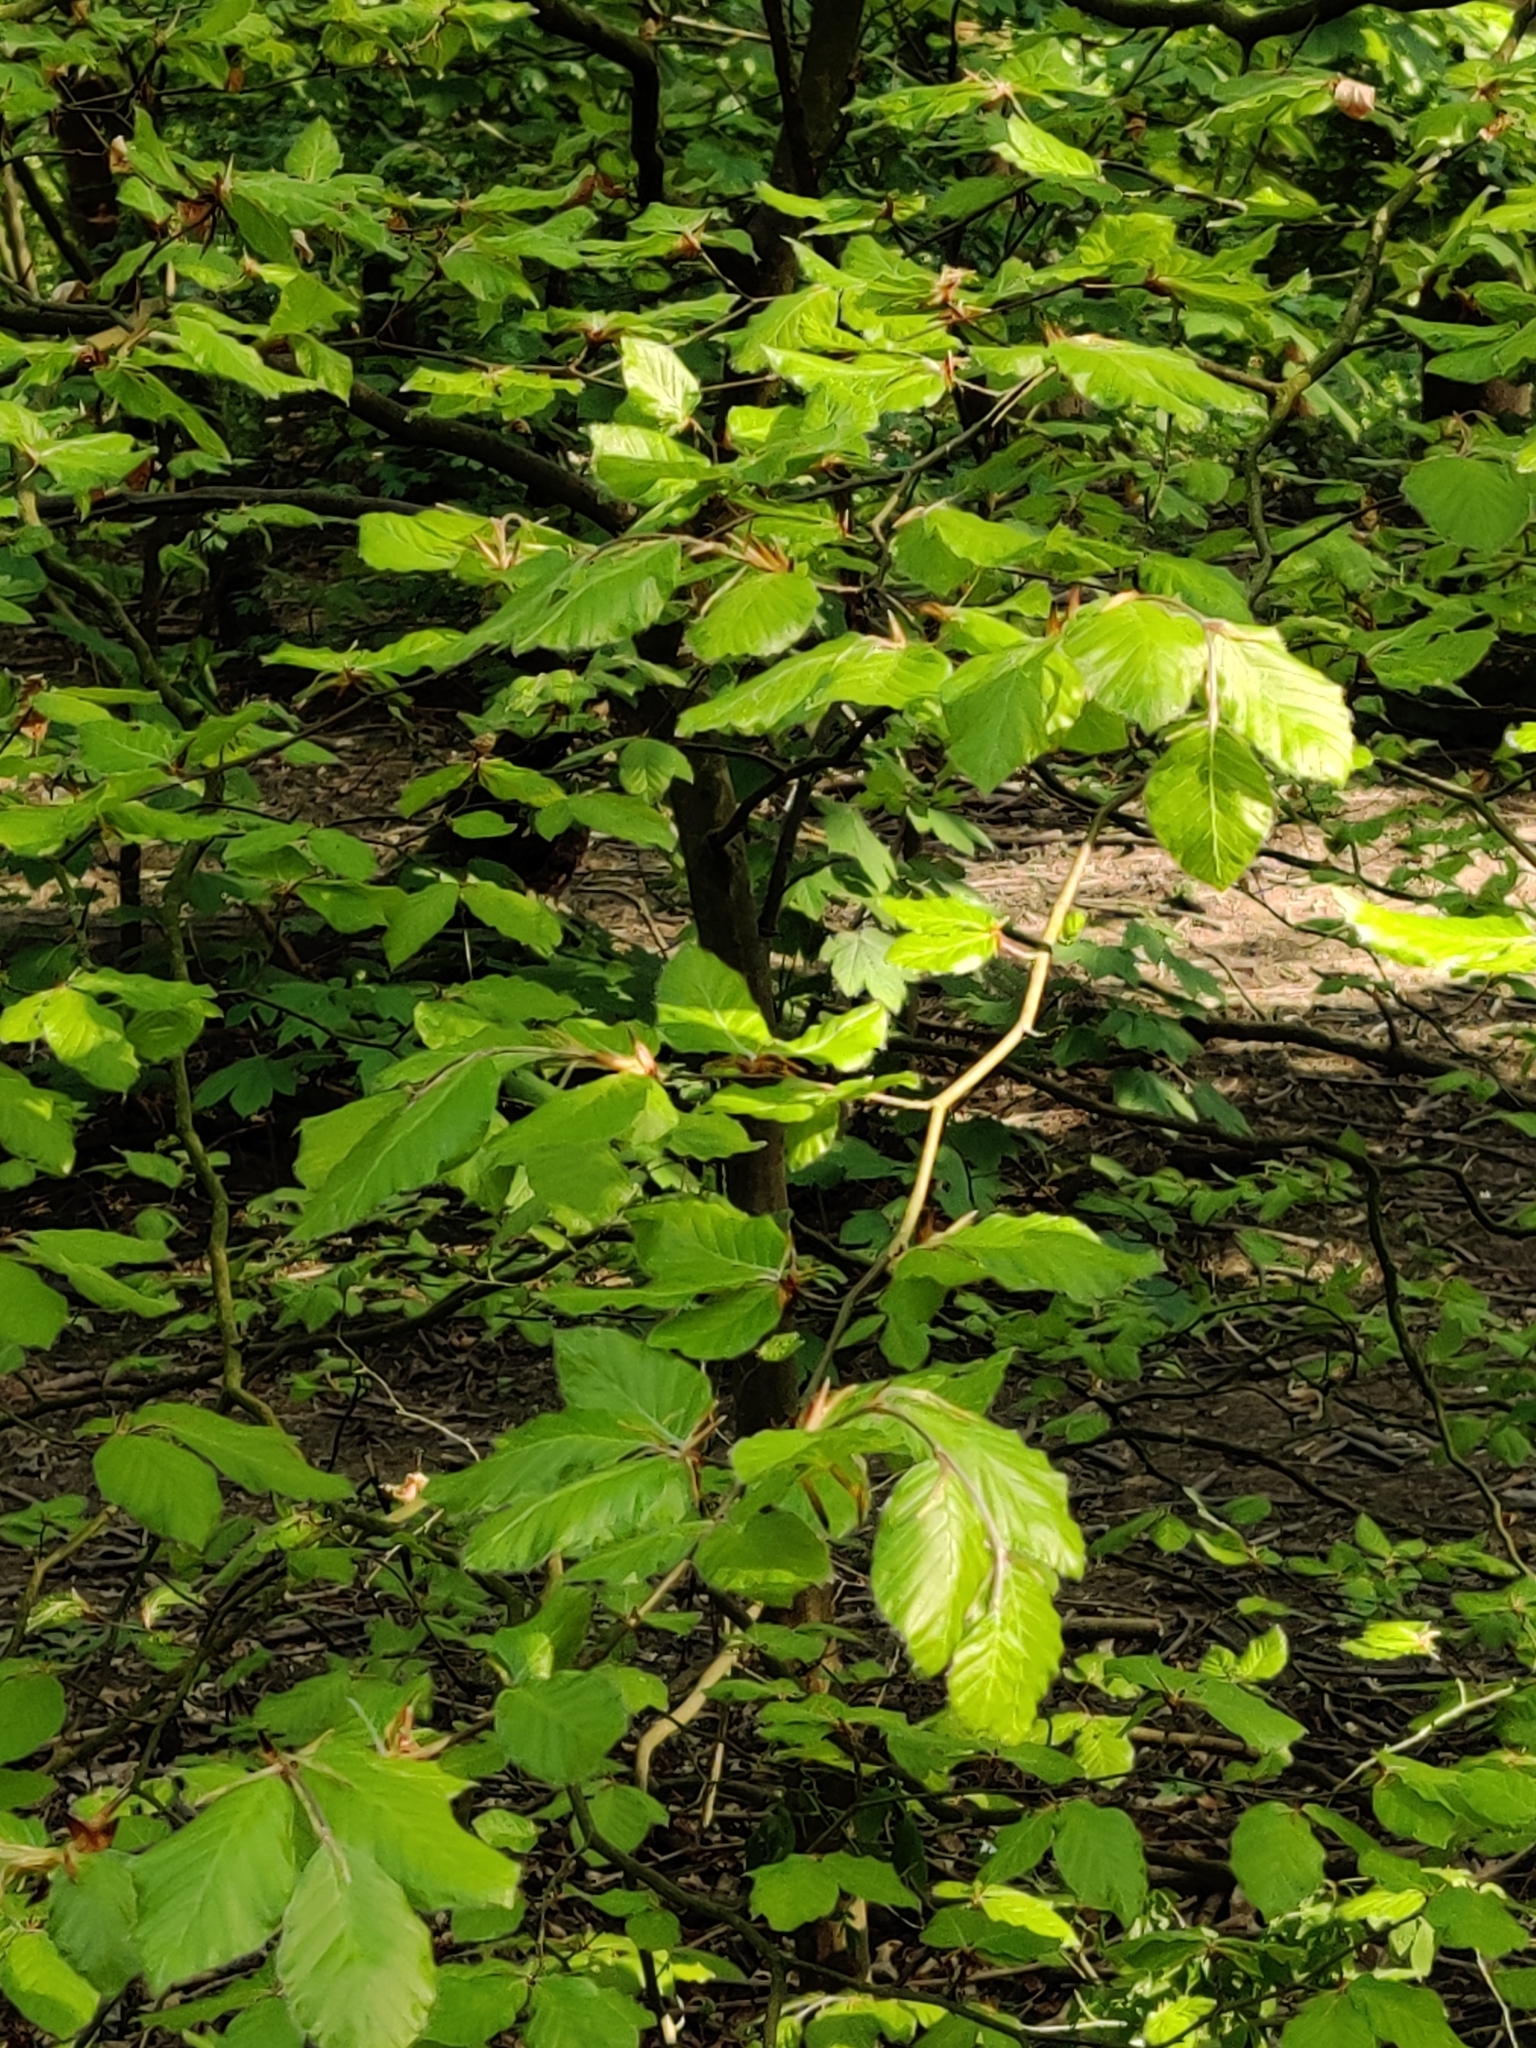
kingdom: Plantae
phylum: Tracheophyta
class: Magnoliopsida
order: Fagales
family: Fagaceae
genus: Fagus
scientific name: Fagus sylvatica
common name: Beech
